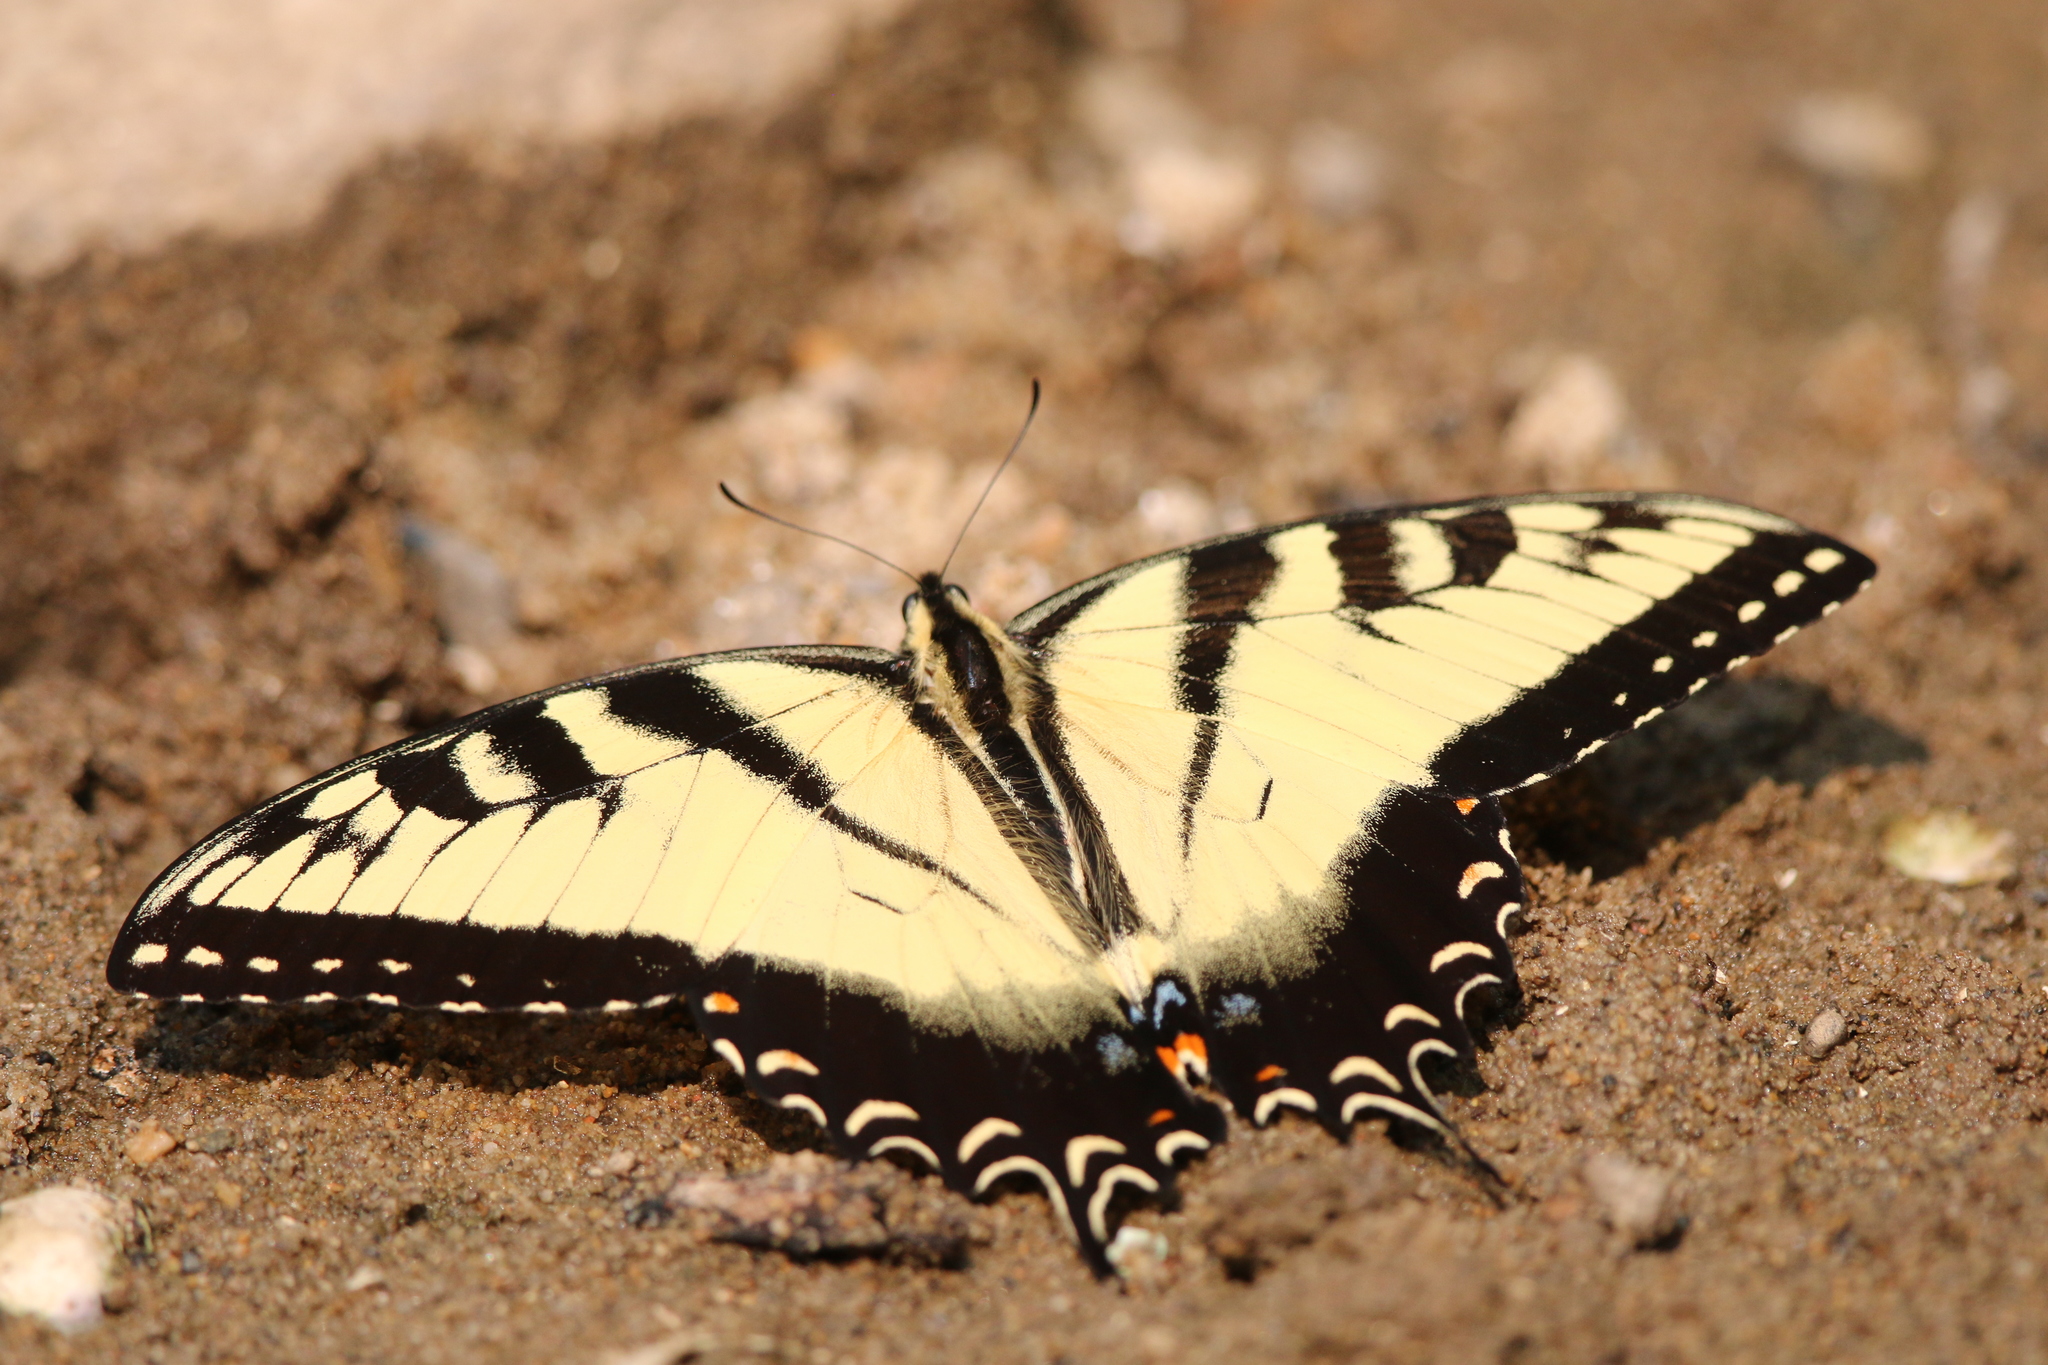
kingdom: Animalia
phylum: Arthropoda
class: Insecta
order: Lepidoptera
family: Papilionidae
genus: Papilio
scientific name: Papilio glaucus
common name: Tiger swallowtail
